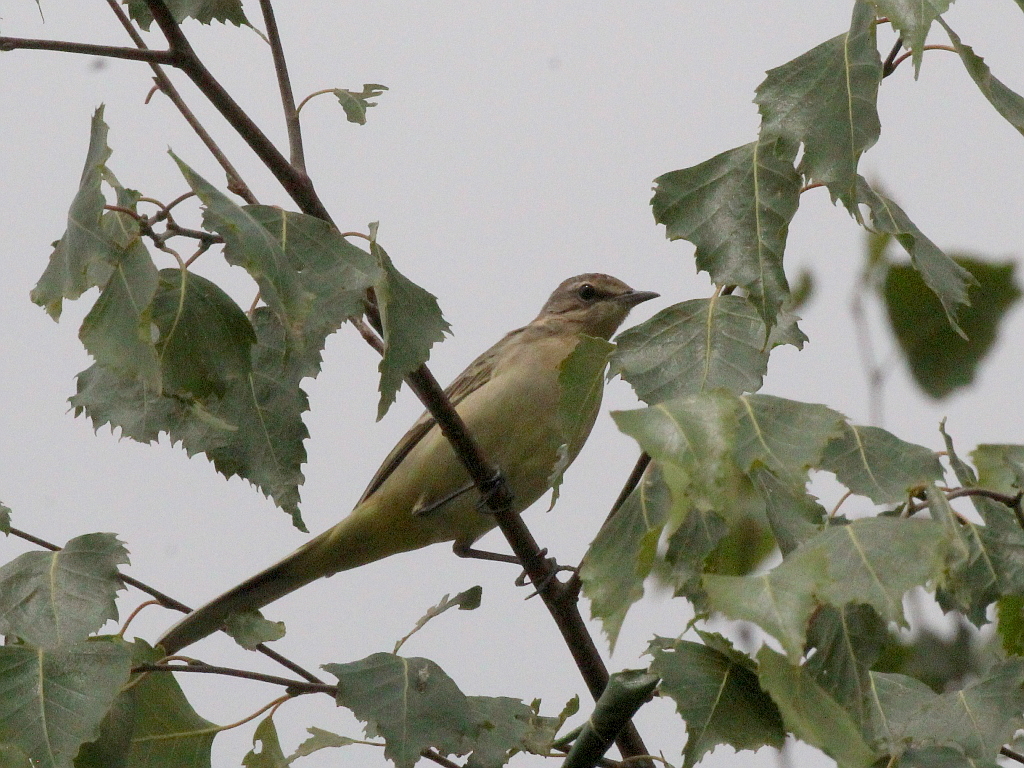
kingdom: Animalia
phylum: Chordata
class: Aves
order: Passeriformes
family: Motacillidae
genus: Motacilla
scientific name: Motacilla flava
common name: Western yellow wagtail
